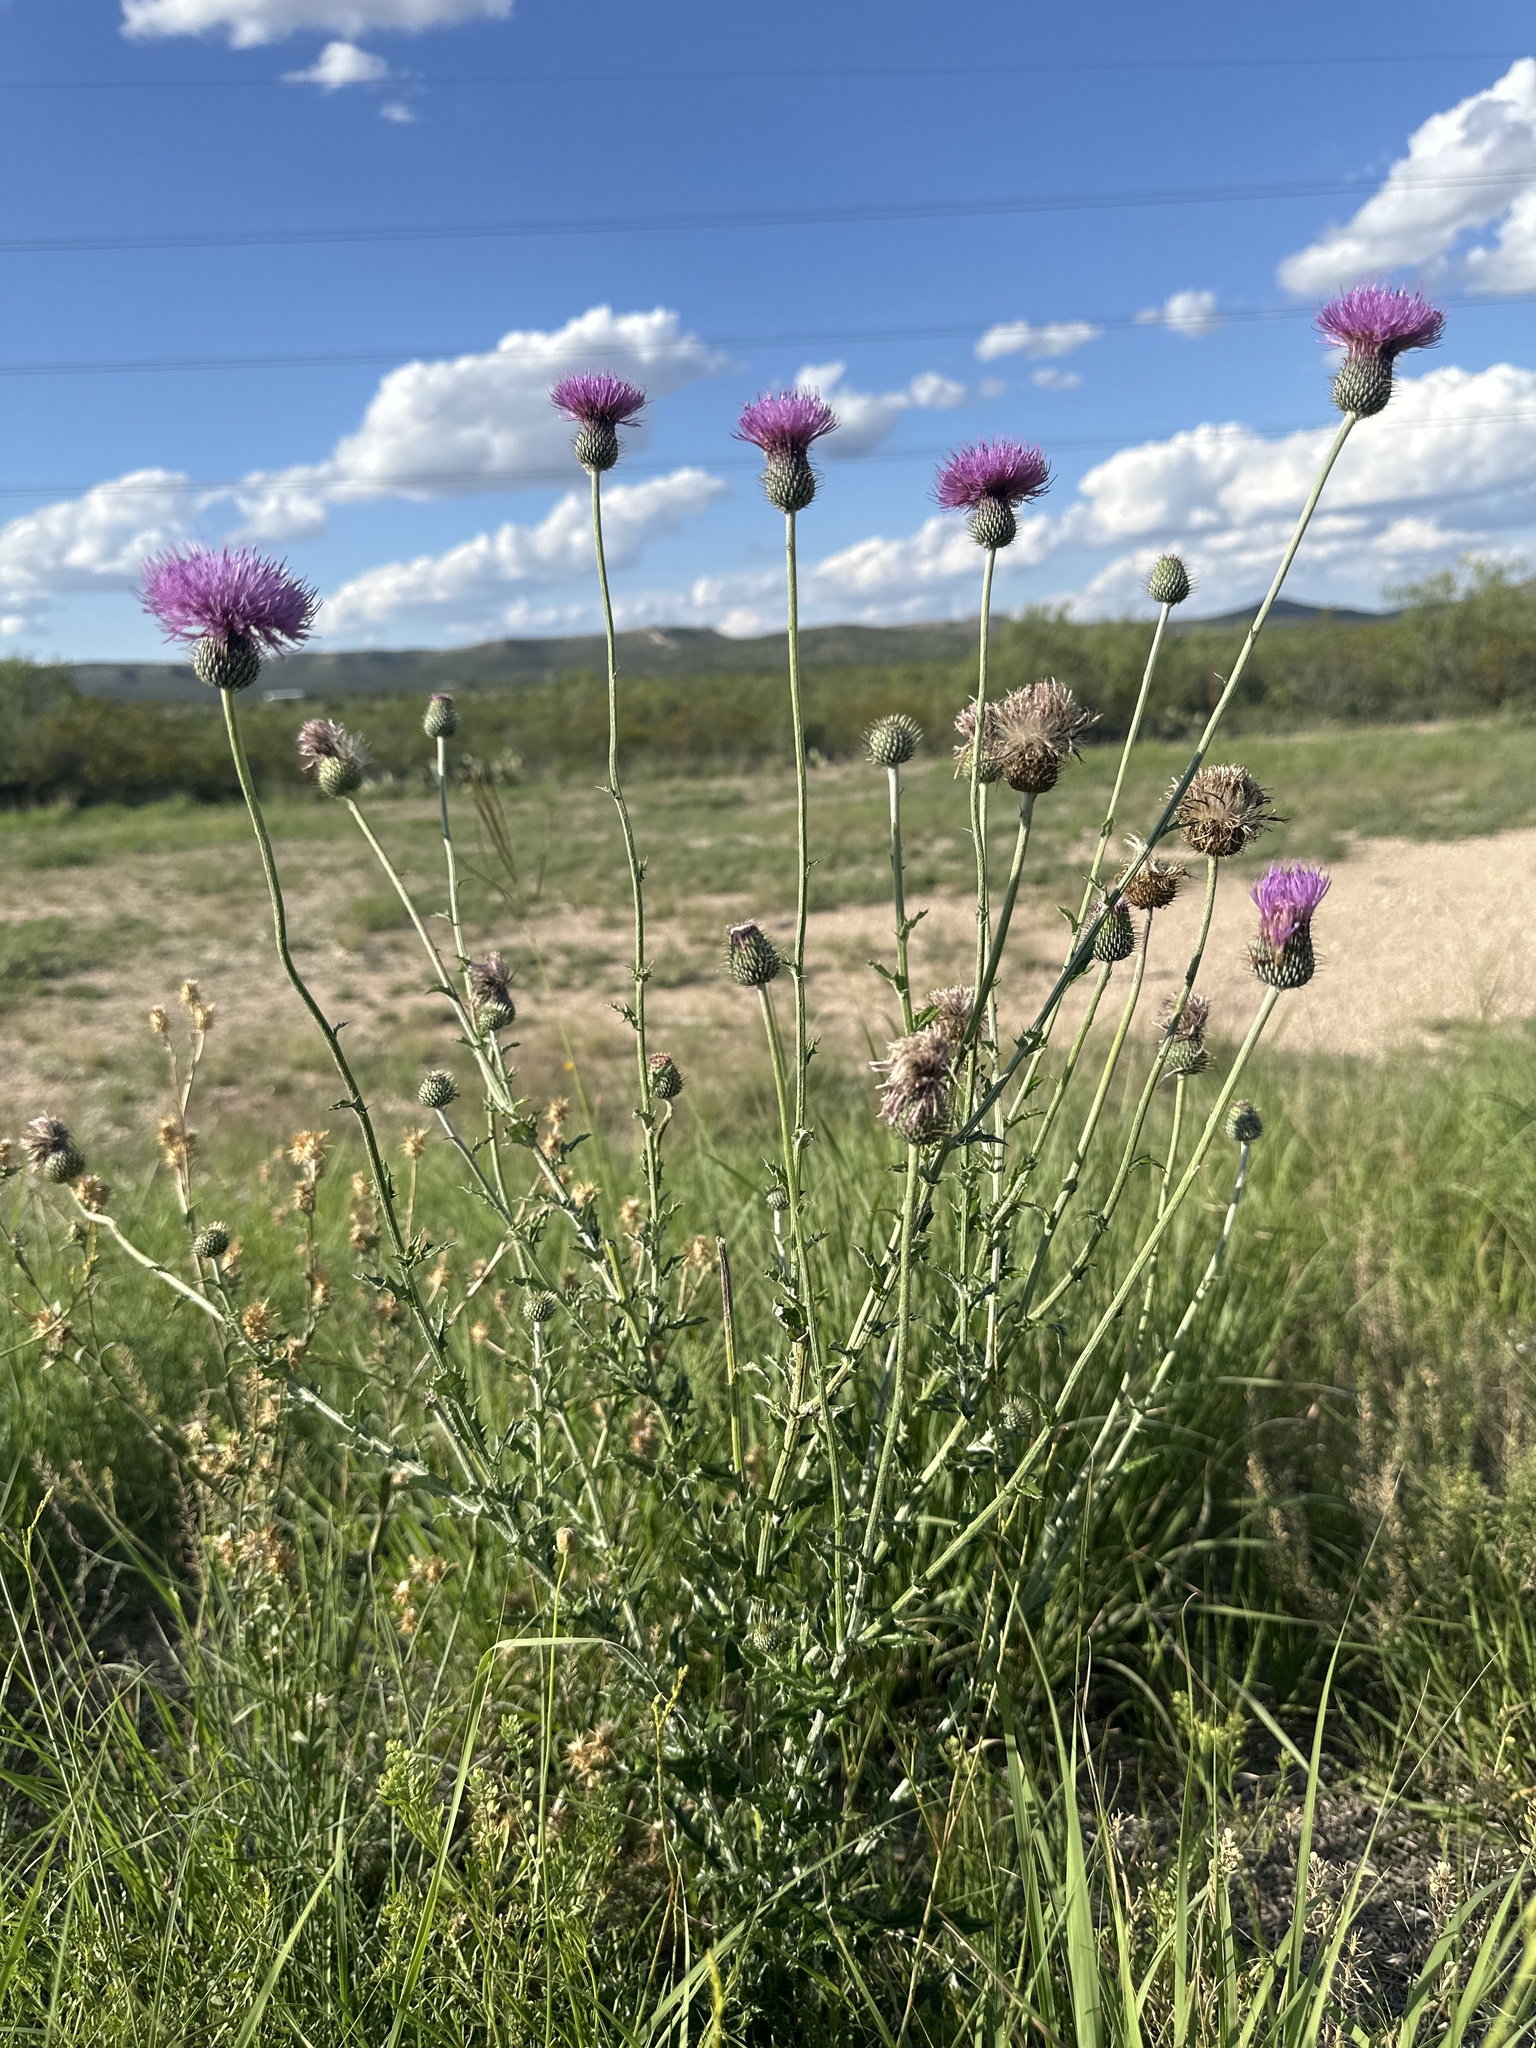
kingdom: Plantae
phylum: Tracheophyta
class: Magnoliopsida
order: Asterales
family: Asteraceae
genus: Cirsium
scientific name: Cirsium texanum
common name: Texas purple thistle
